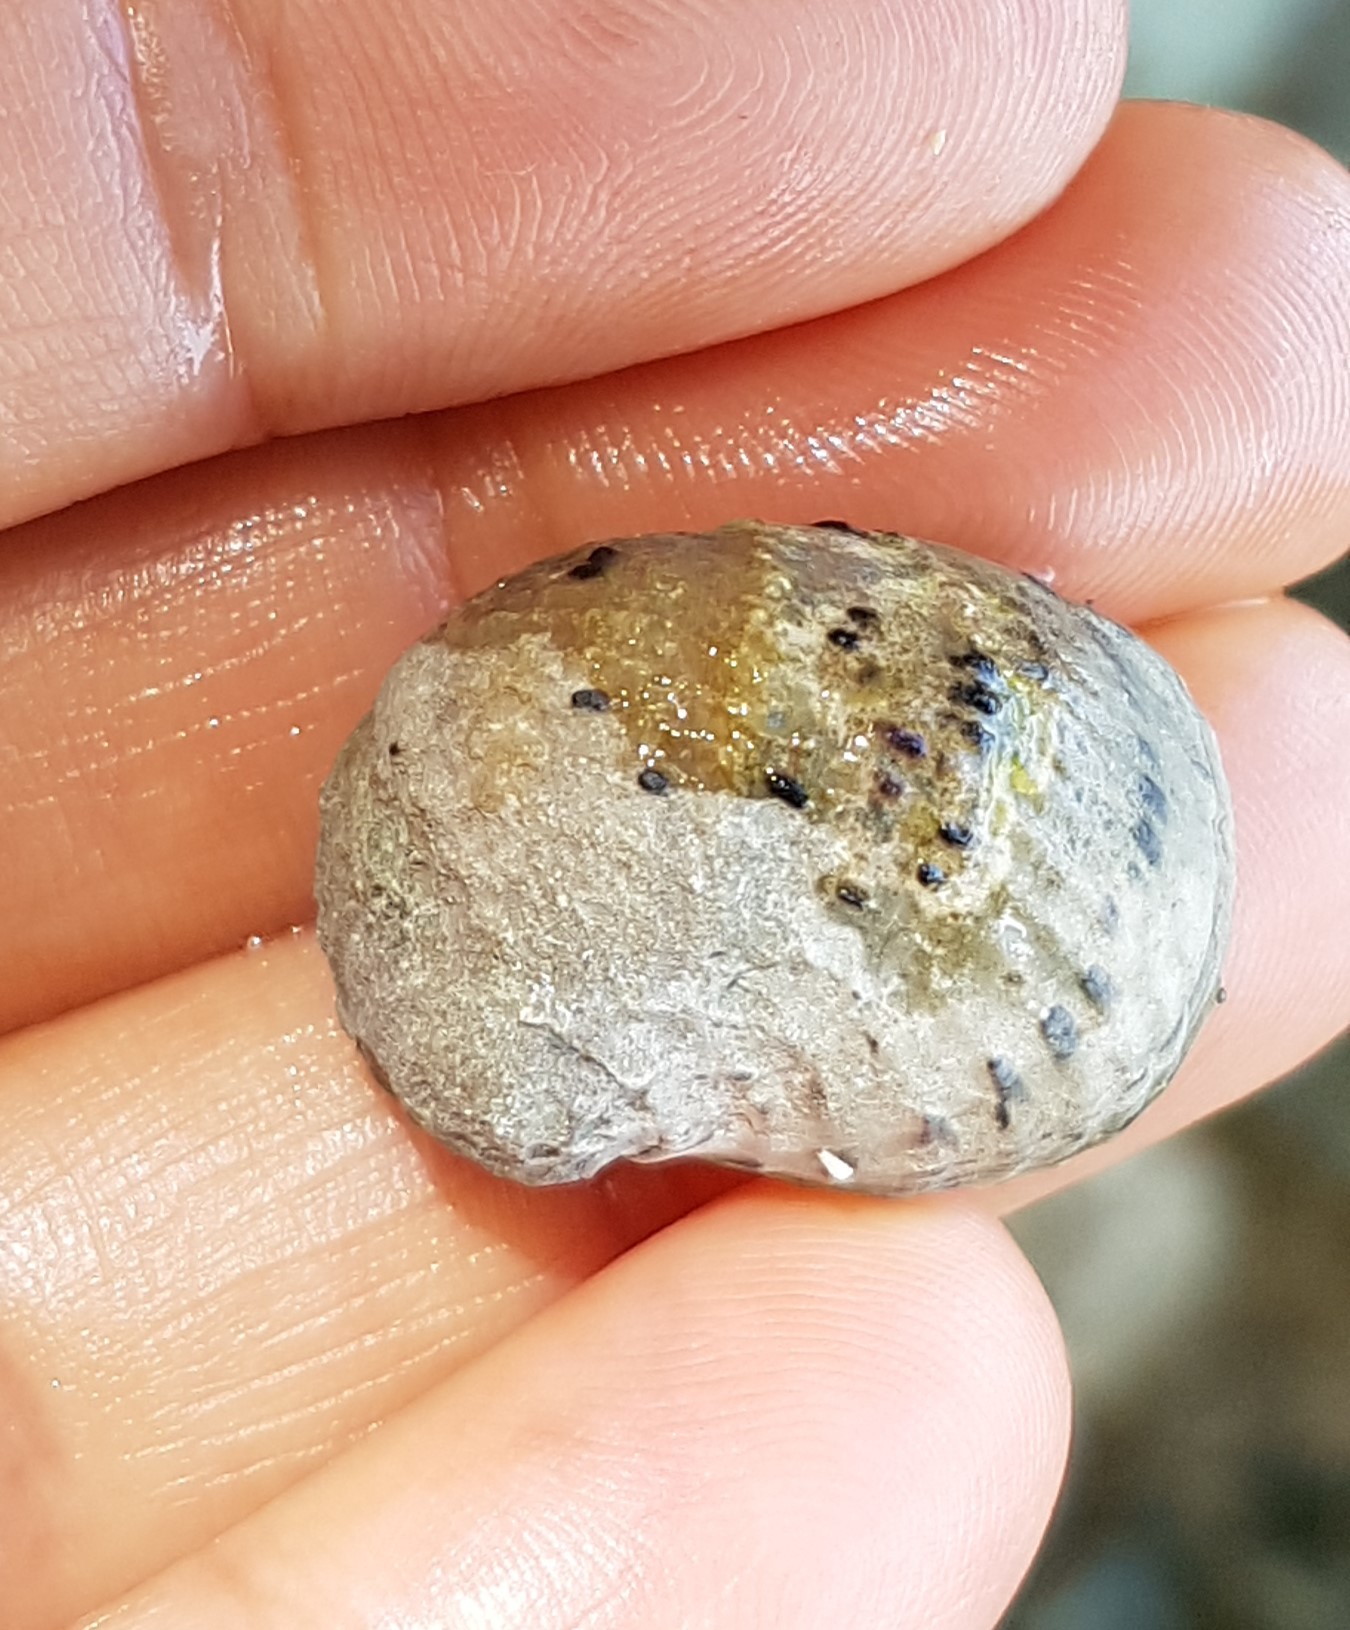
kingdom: Animalia
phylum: Mollusca
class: Gastropoda
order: Cycloneritida
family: Neritidae
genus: Nerita
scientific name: Nerita versicolor
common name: Four-tooth nerite
